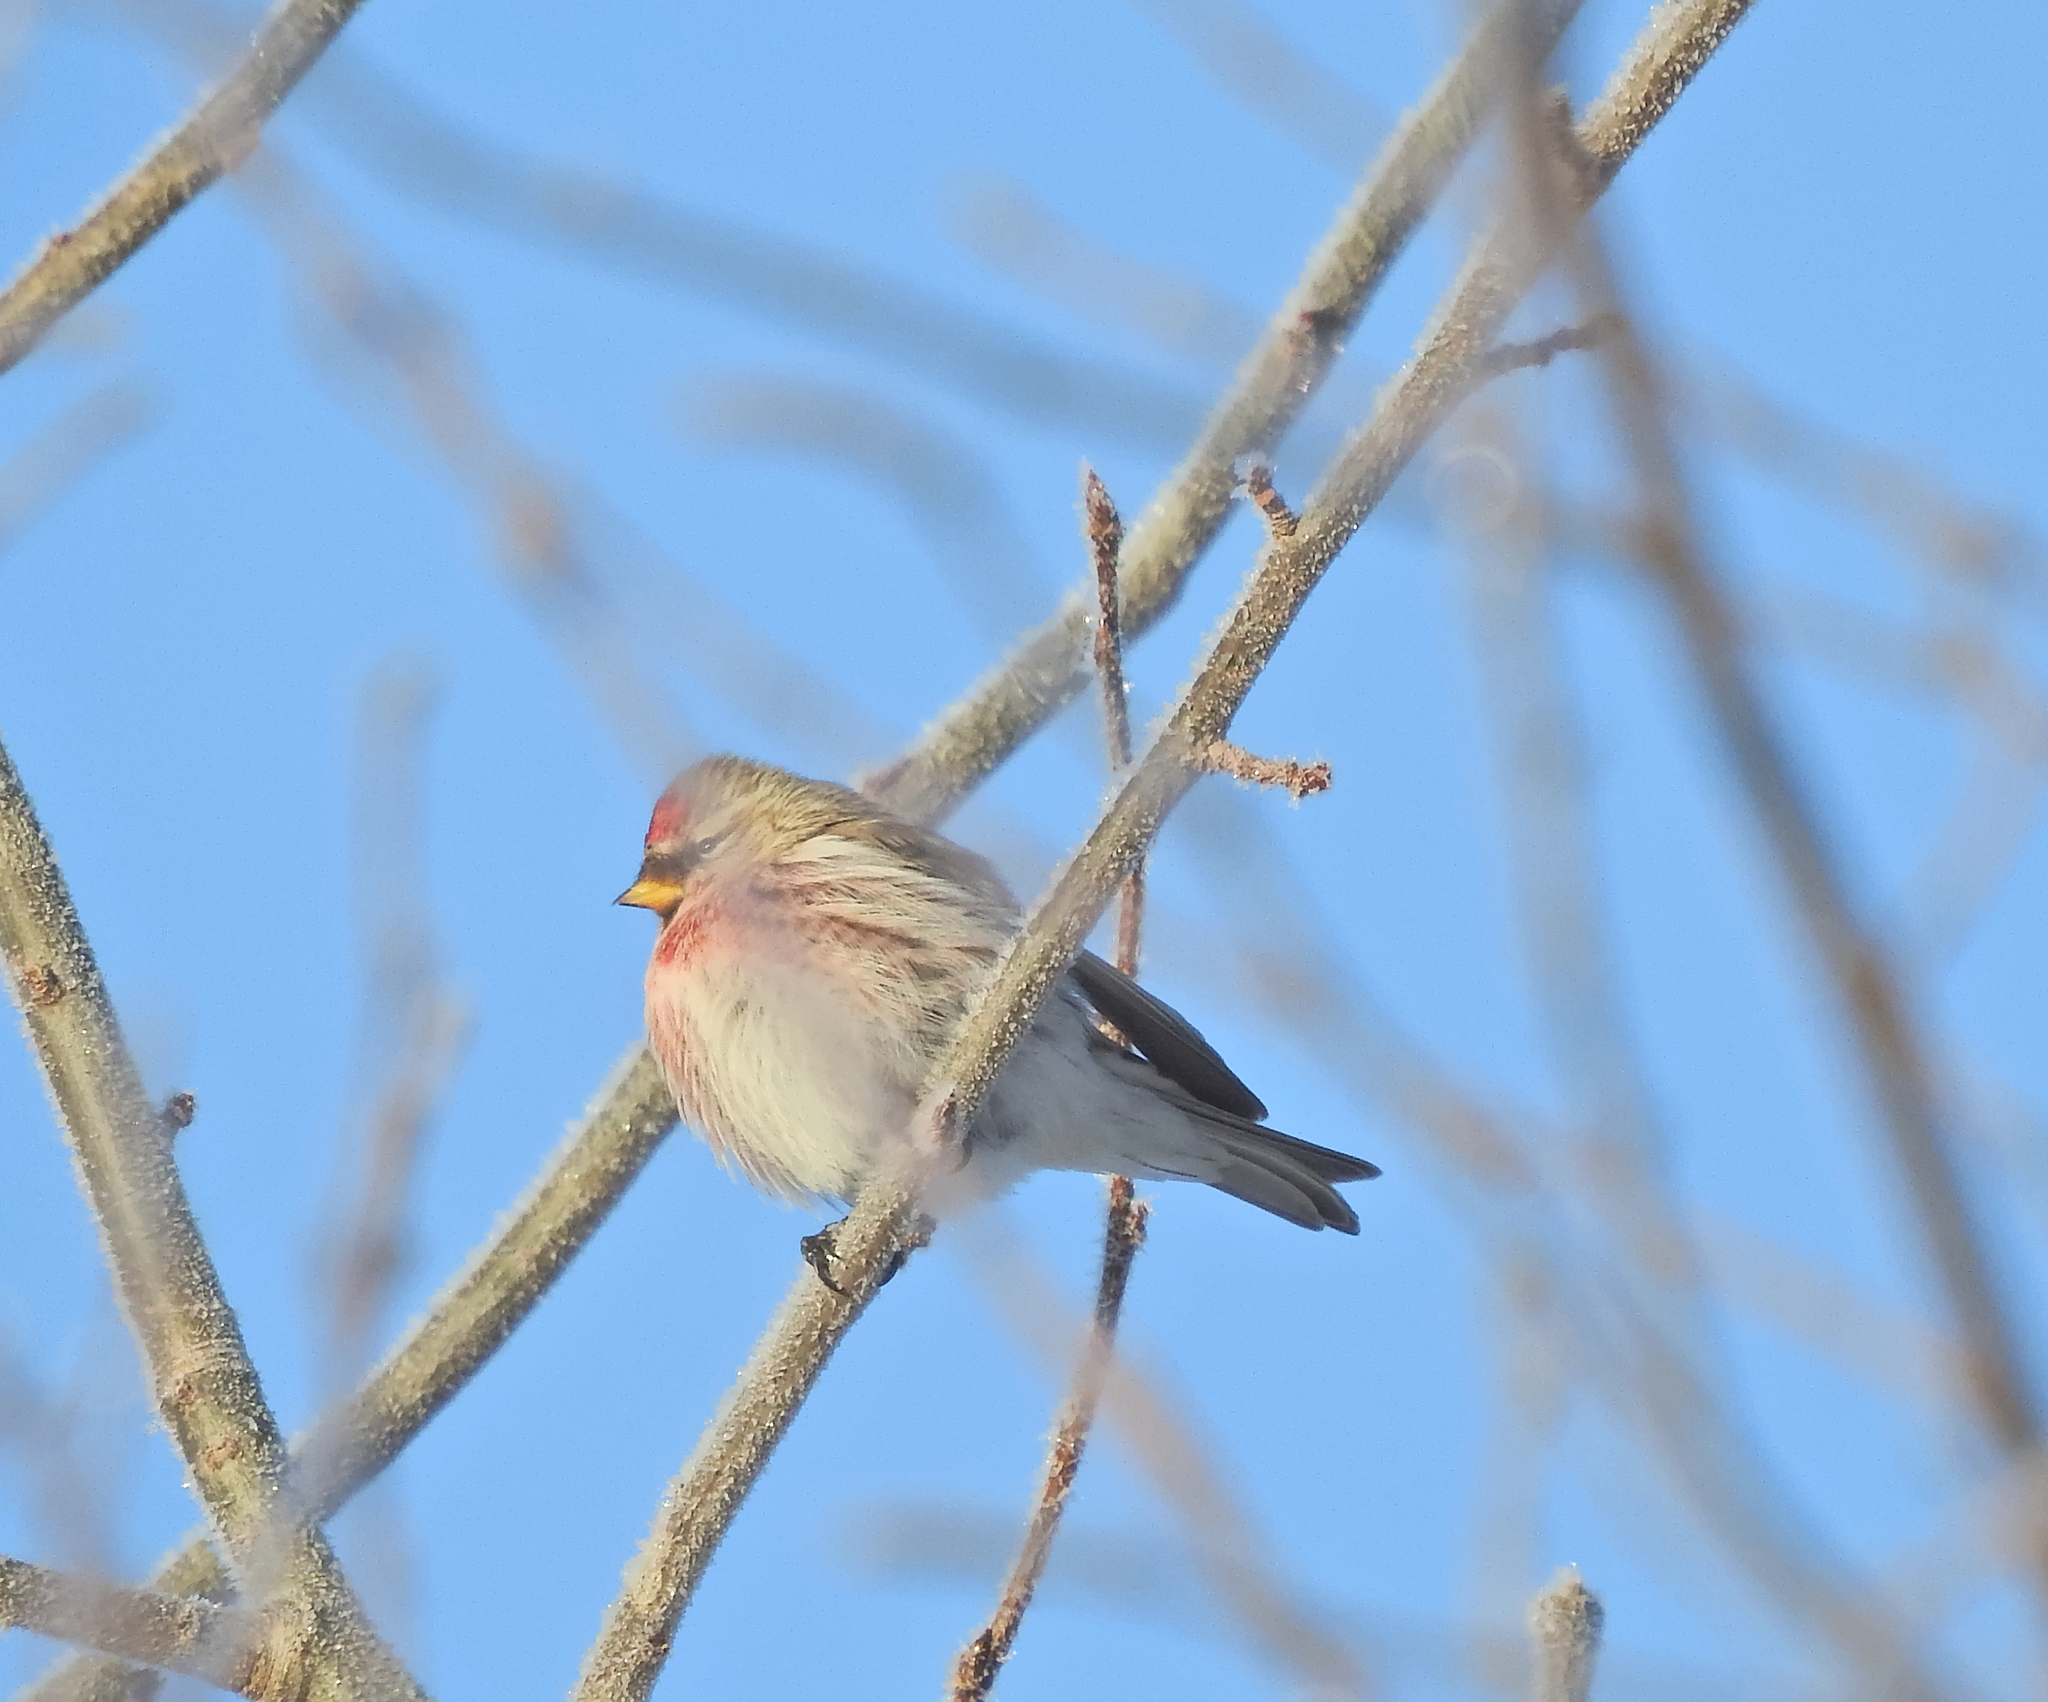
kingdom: Animalia
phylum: Chordata
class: Aves
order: Passeriformes
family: Fringillidae
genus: Acanthis
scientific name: Acanthis flammea
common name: Common redpoll
